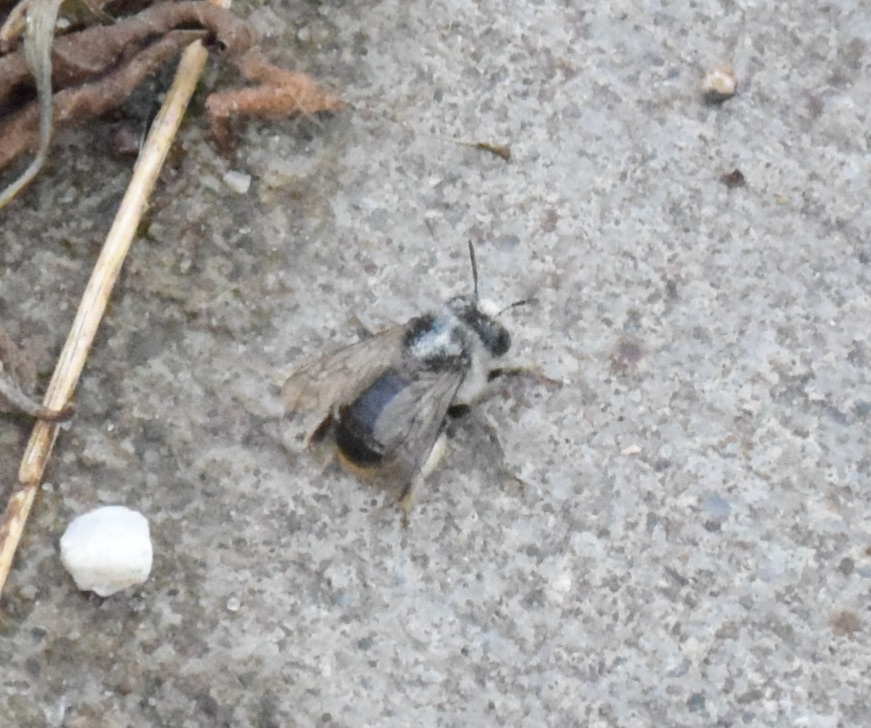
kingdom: Animalia
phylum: Arthropoda
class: Insecta
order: Hymenoptera
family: Apidae
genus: Anthophora
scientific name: Anthophora terminalis
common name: Orange-tipped wood-digger bee
